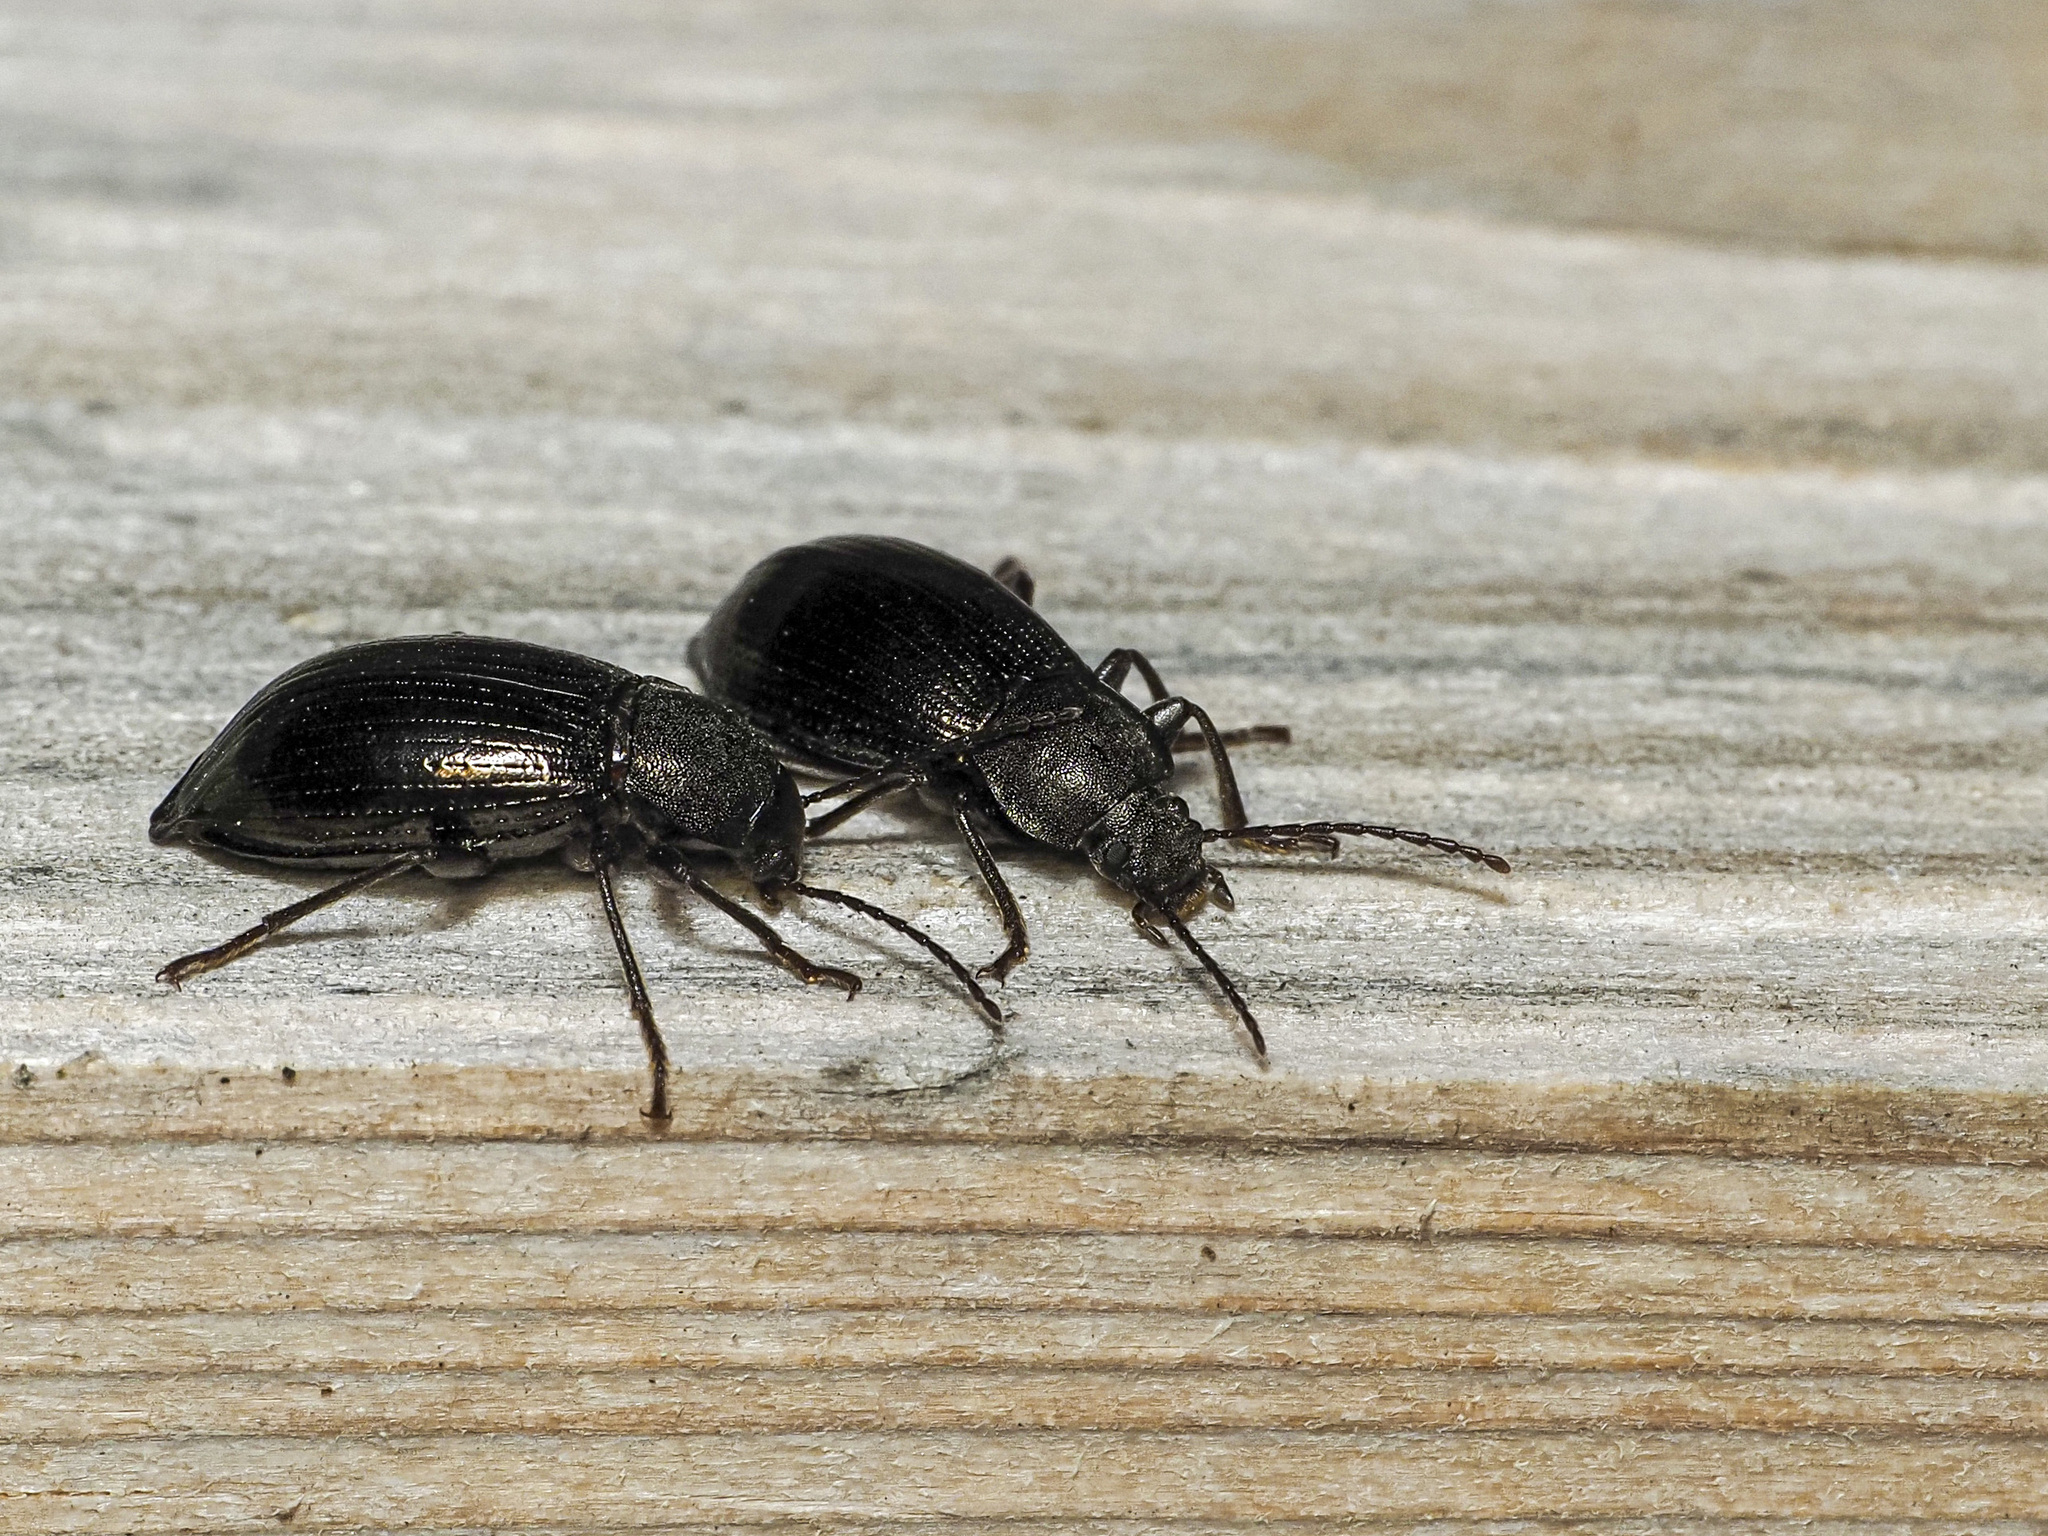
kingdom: Animalia
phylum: Arthropoda
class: Insecta
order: Coleoptera
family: Tenebrionidae
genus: Stenomax
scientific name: Stenomax aeneus
